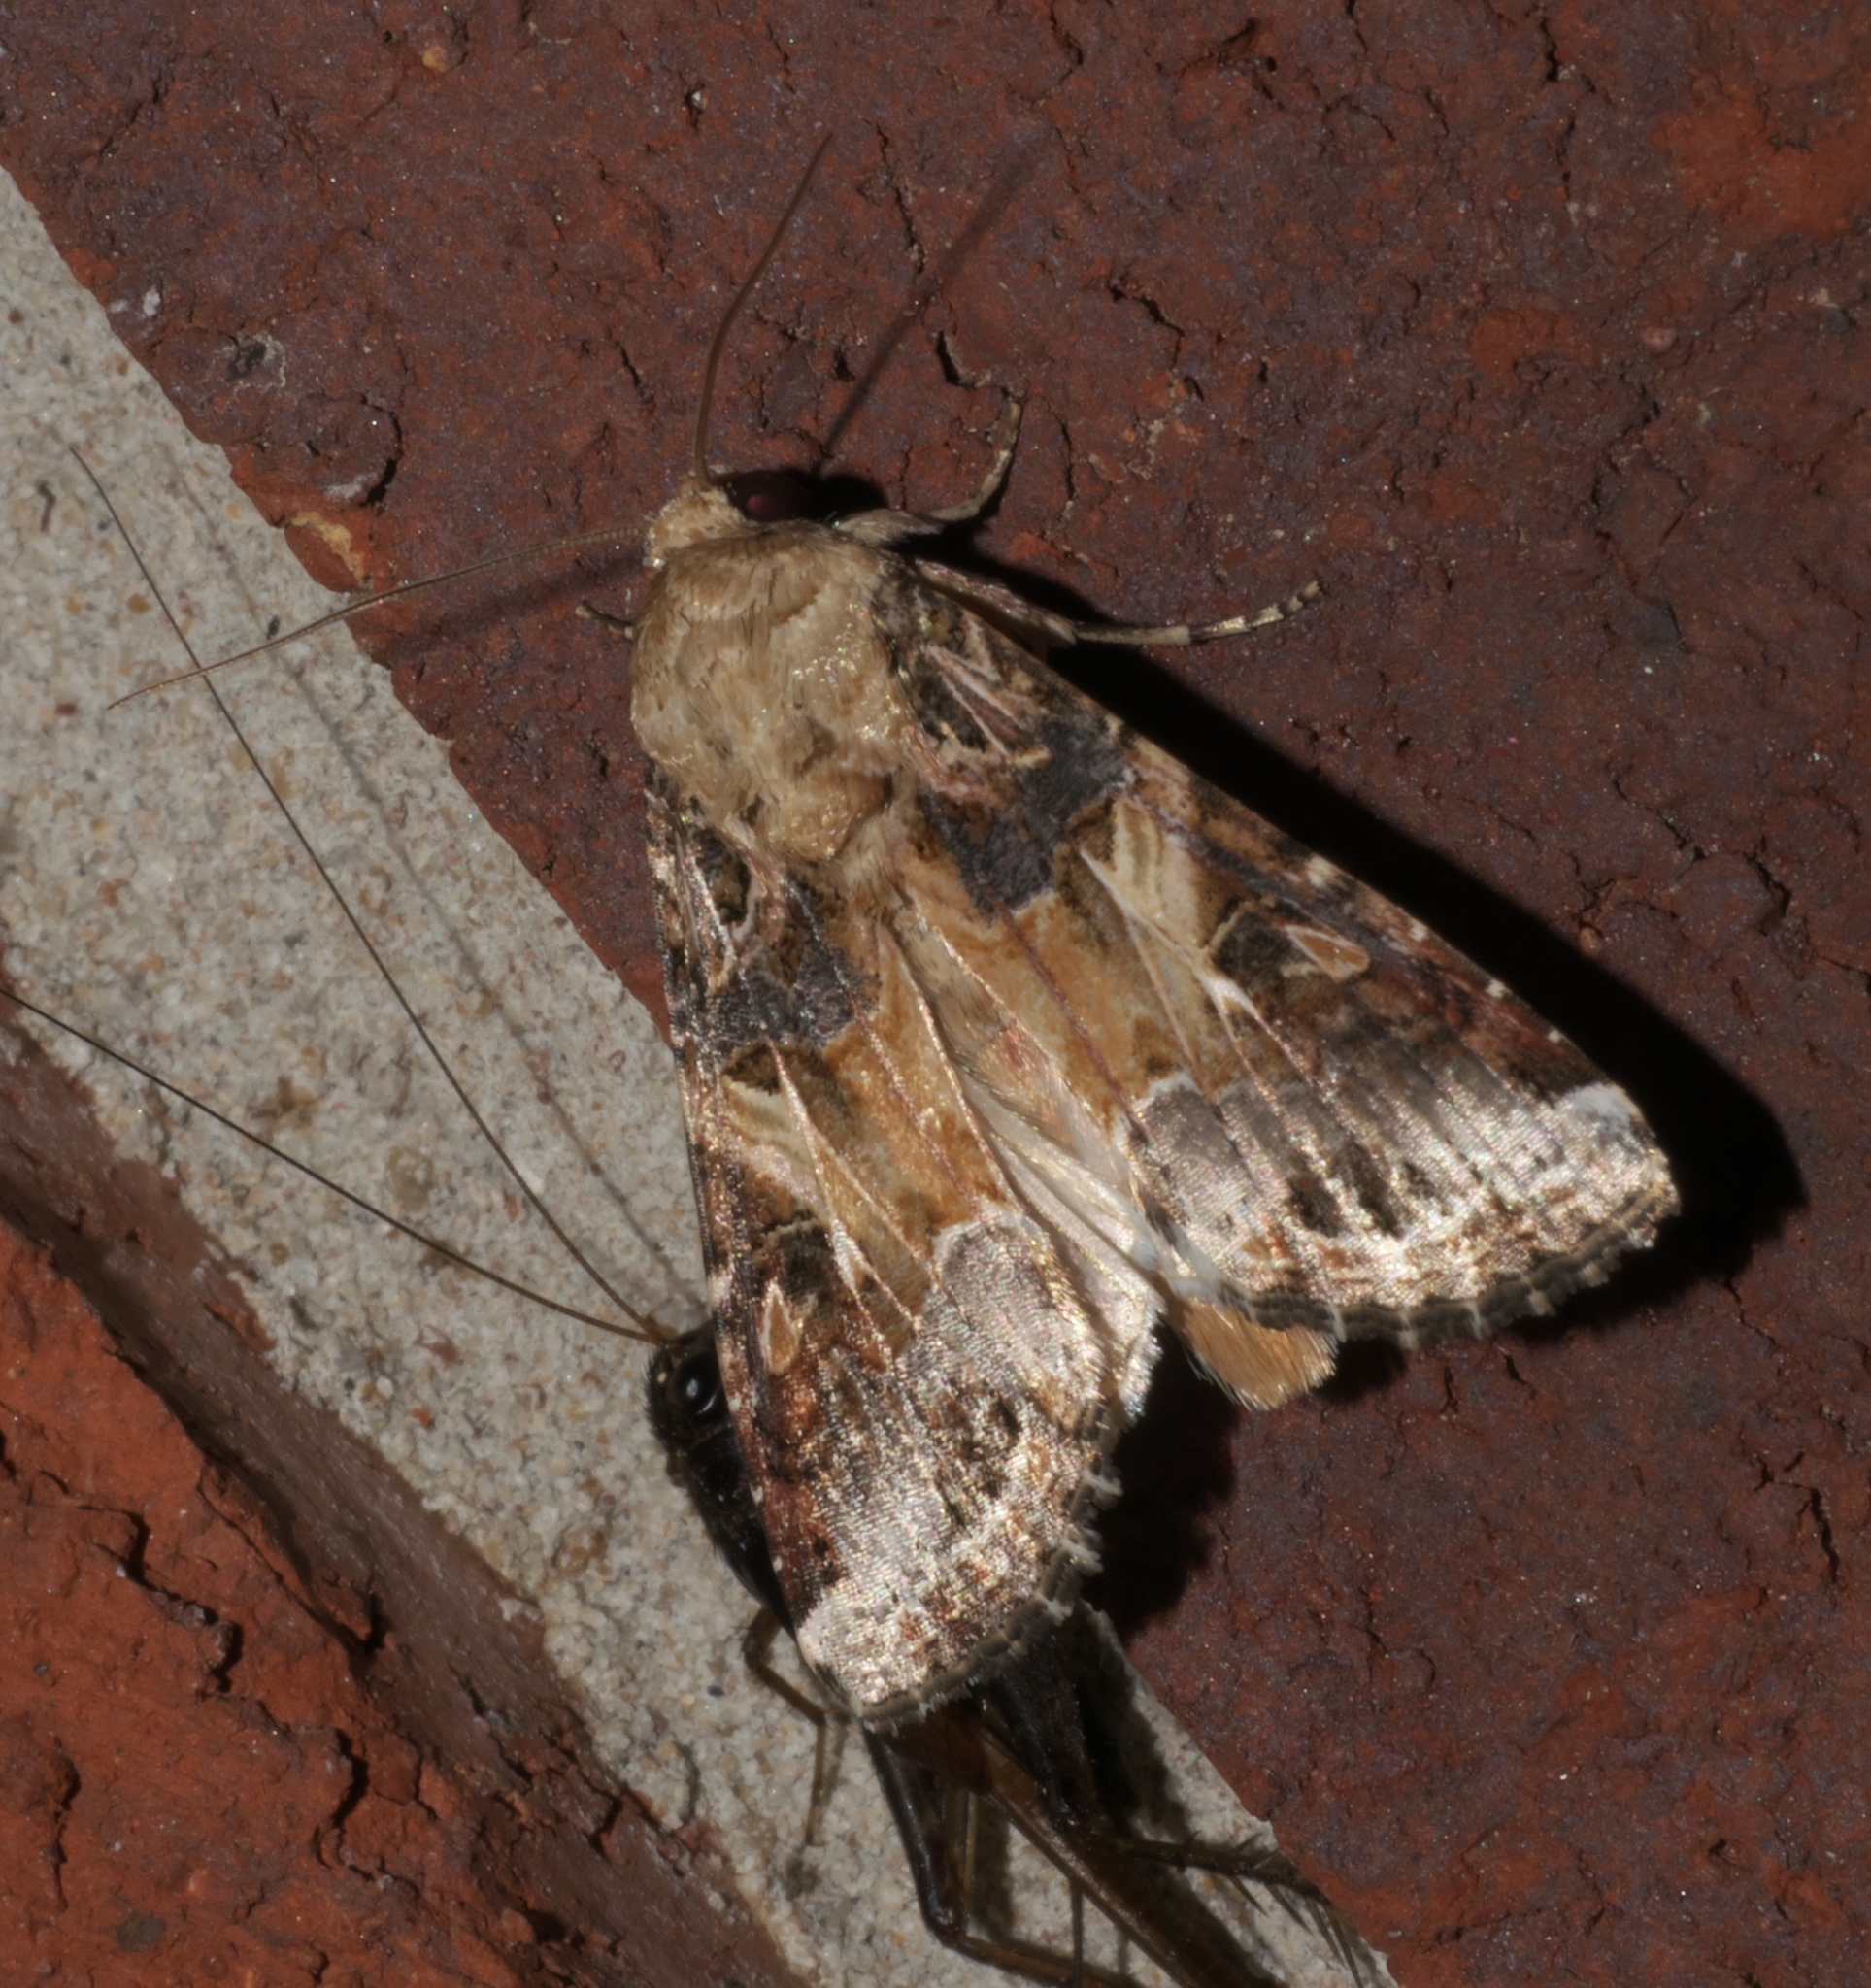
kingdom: Animalia
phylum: Arthropoda
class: Insecta
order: Lepidoptera
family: Noctuidae
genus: Spodoptera
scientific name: Spodoptera ornithogalli
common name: Yellow-striped armyworm
